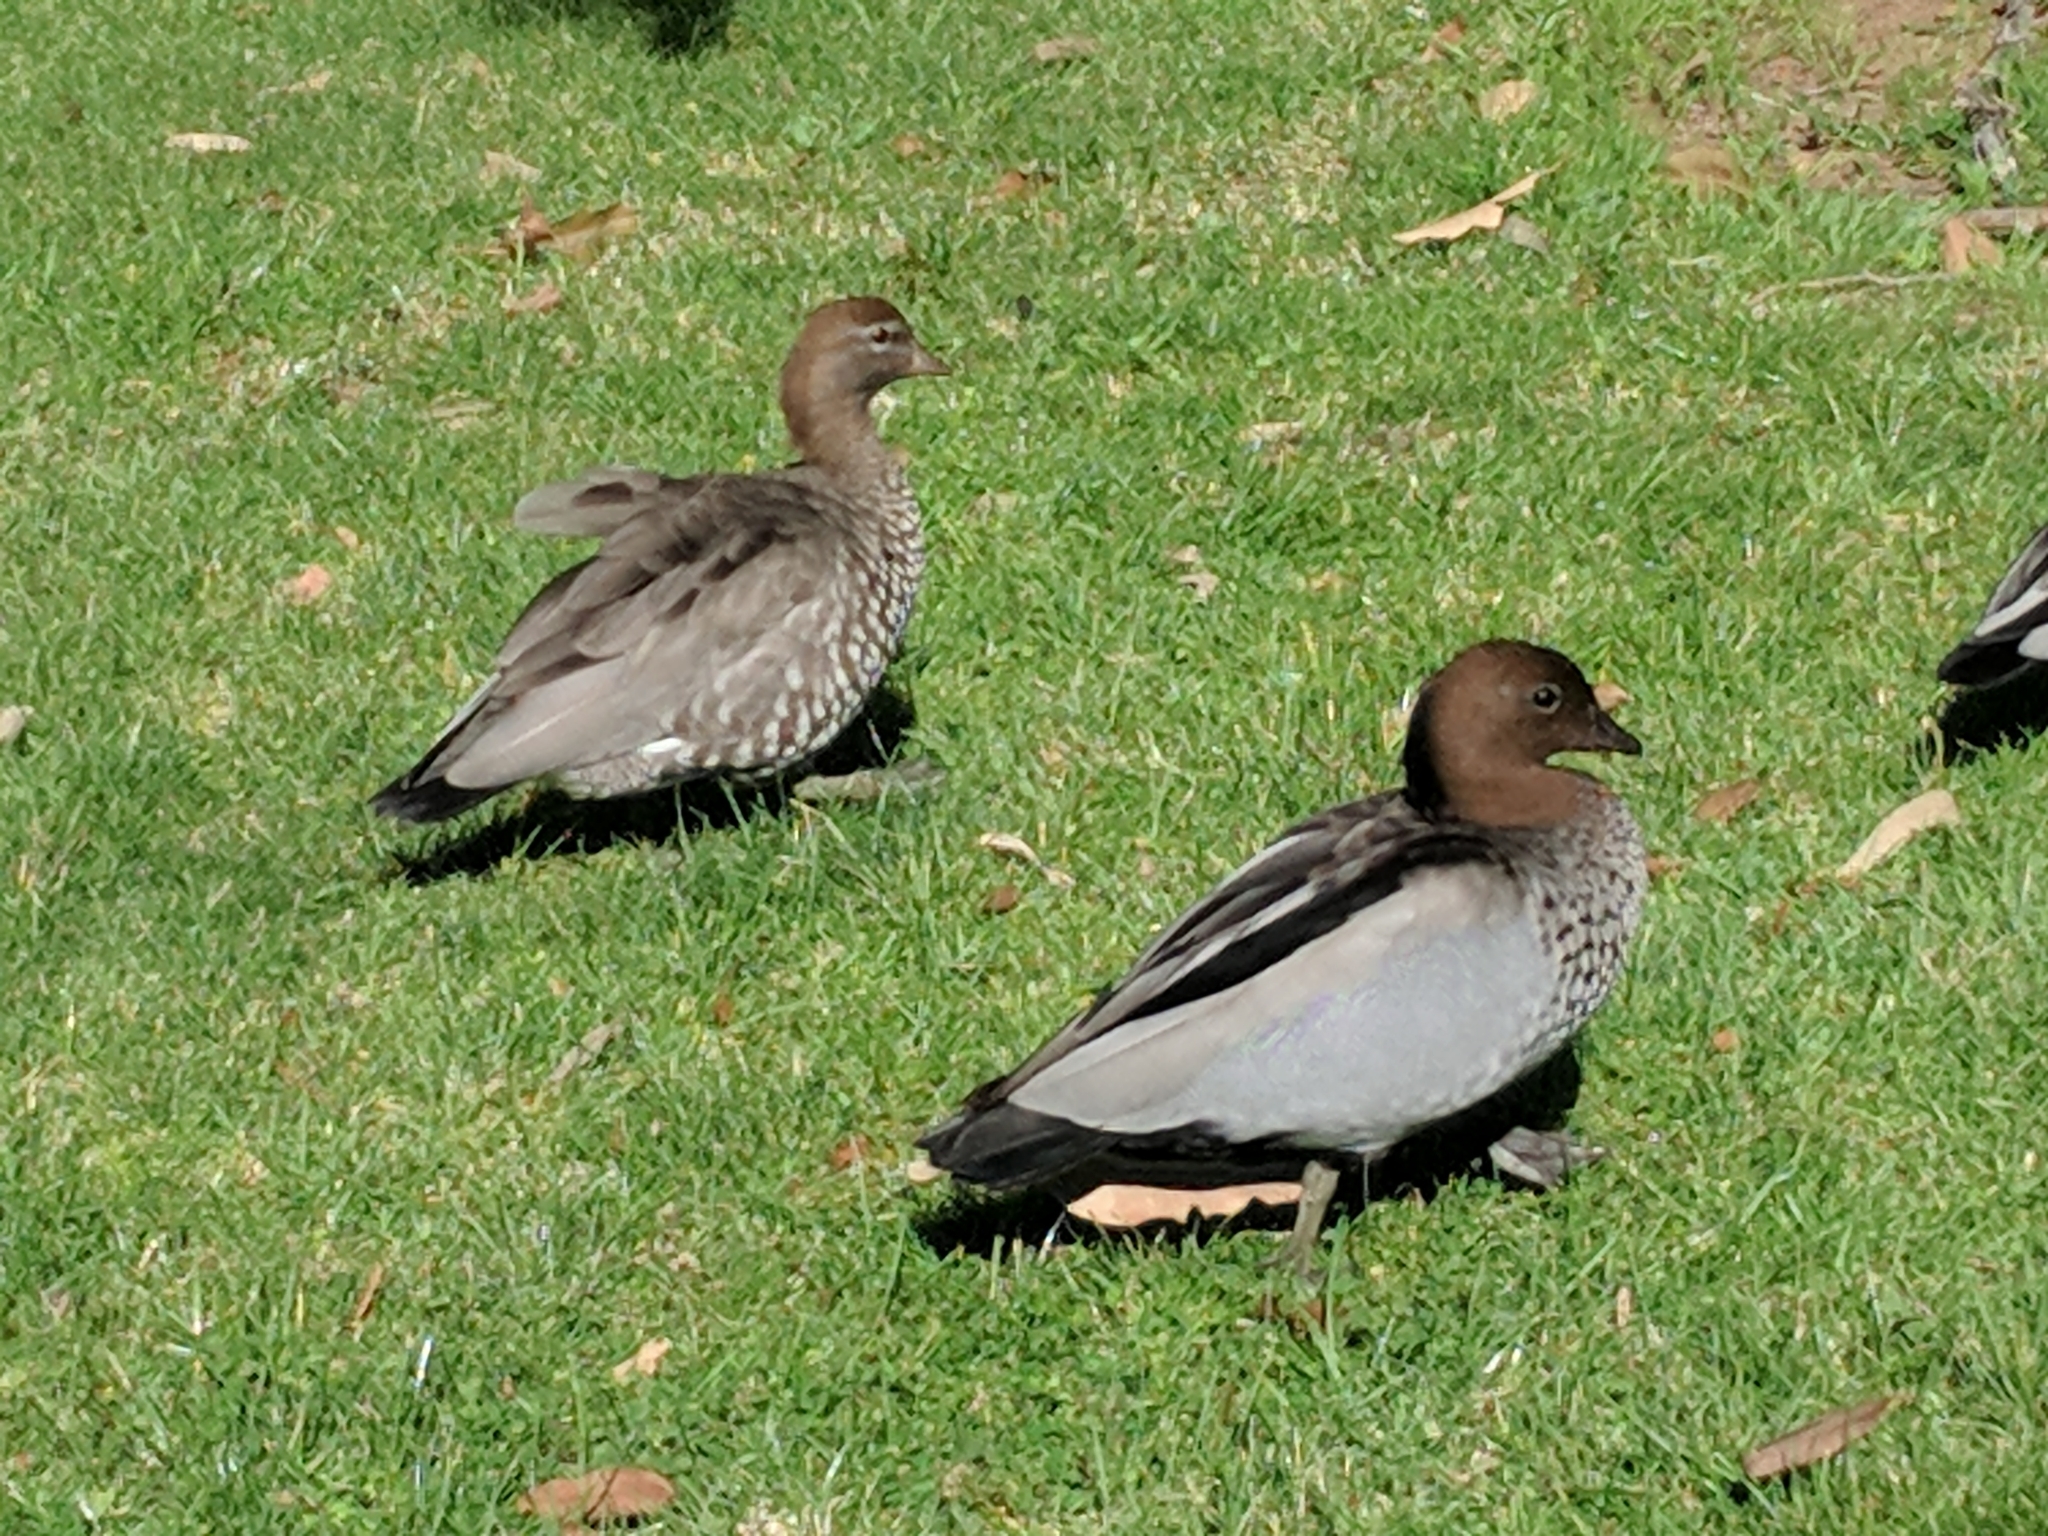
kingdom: Animalia
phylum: Chordata
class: Aves
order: Anseriformes
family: Anatidae
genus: Chenonetta
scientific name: Chenonetta jubata
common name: Maned duck
